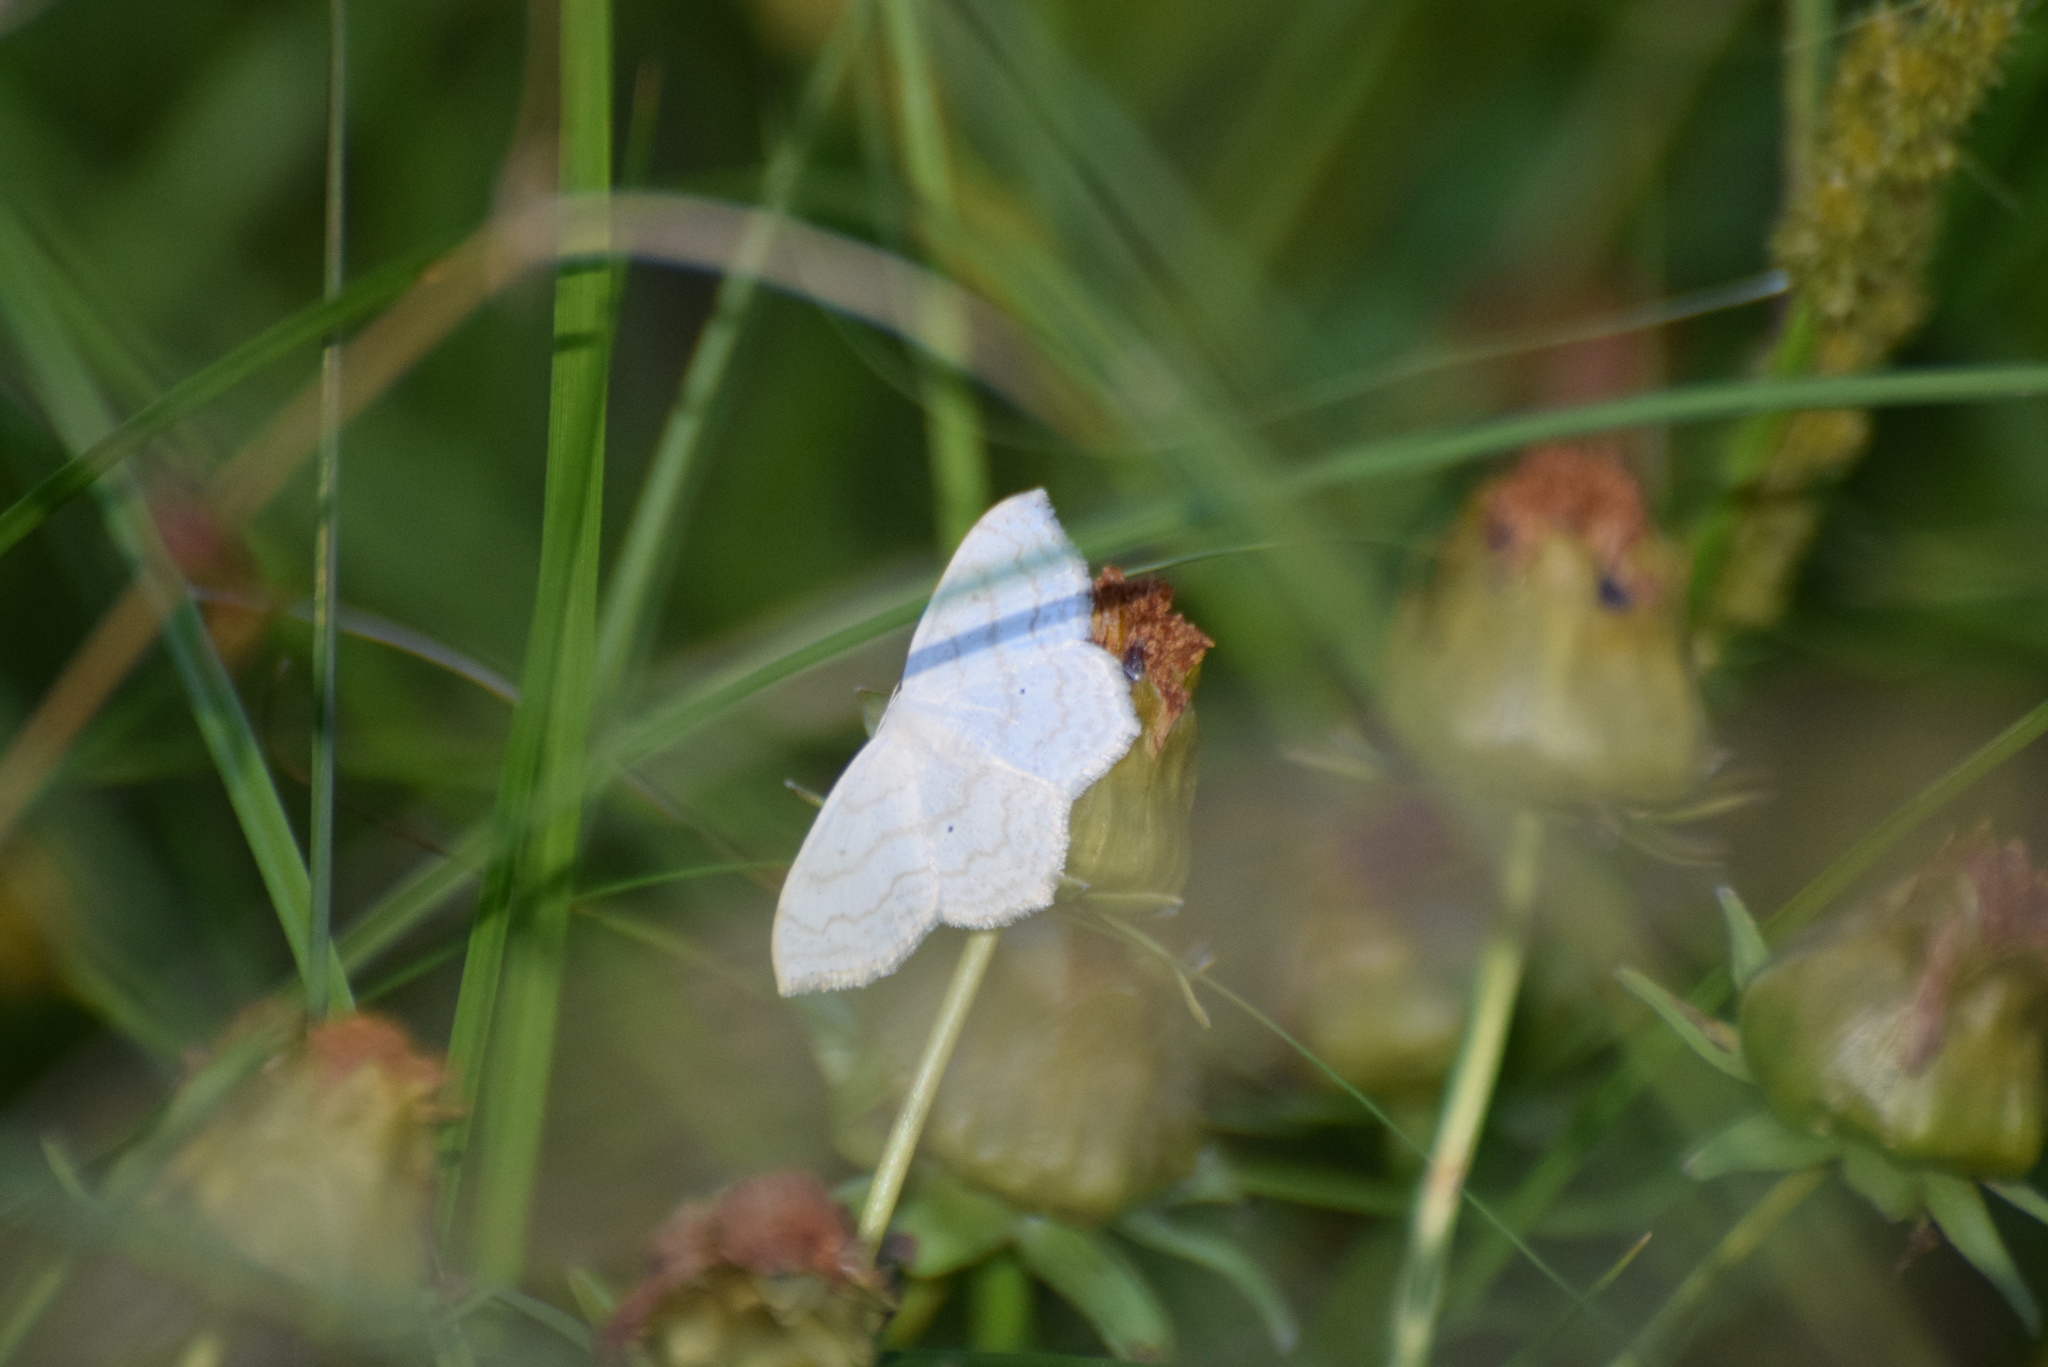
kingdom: Animalia
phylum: Arthropoda
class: Insecta
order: Lepidoptera
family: Geometridae
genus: Scopula
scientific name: Scopula limboundata
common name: Large lace border
